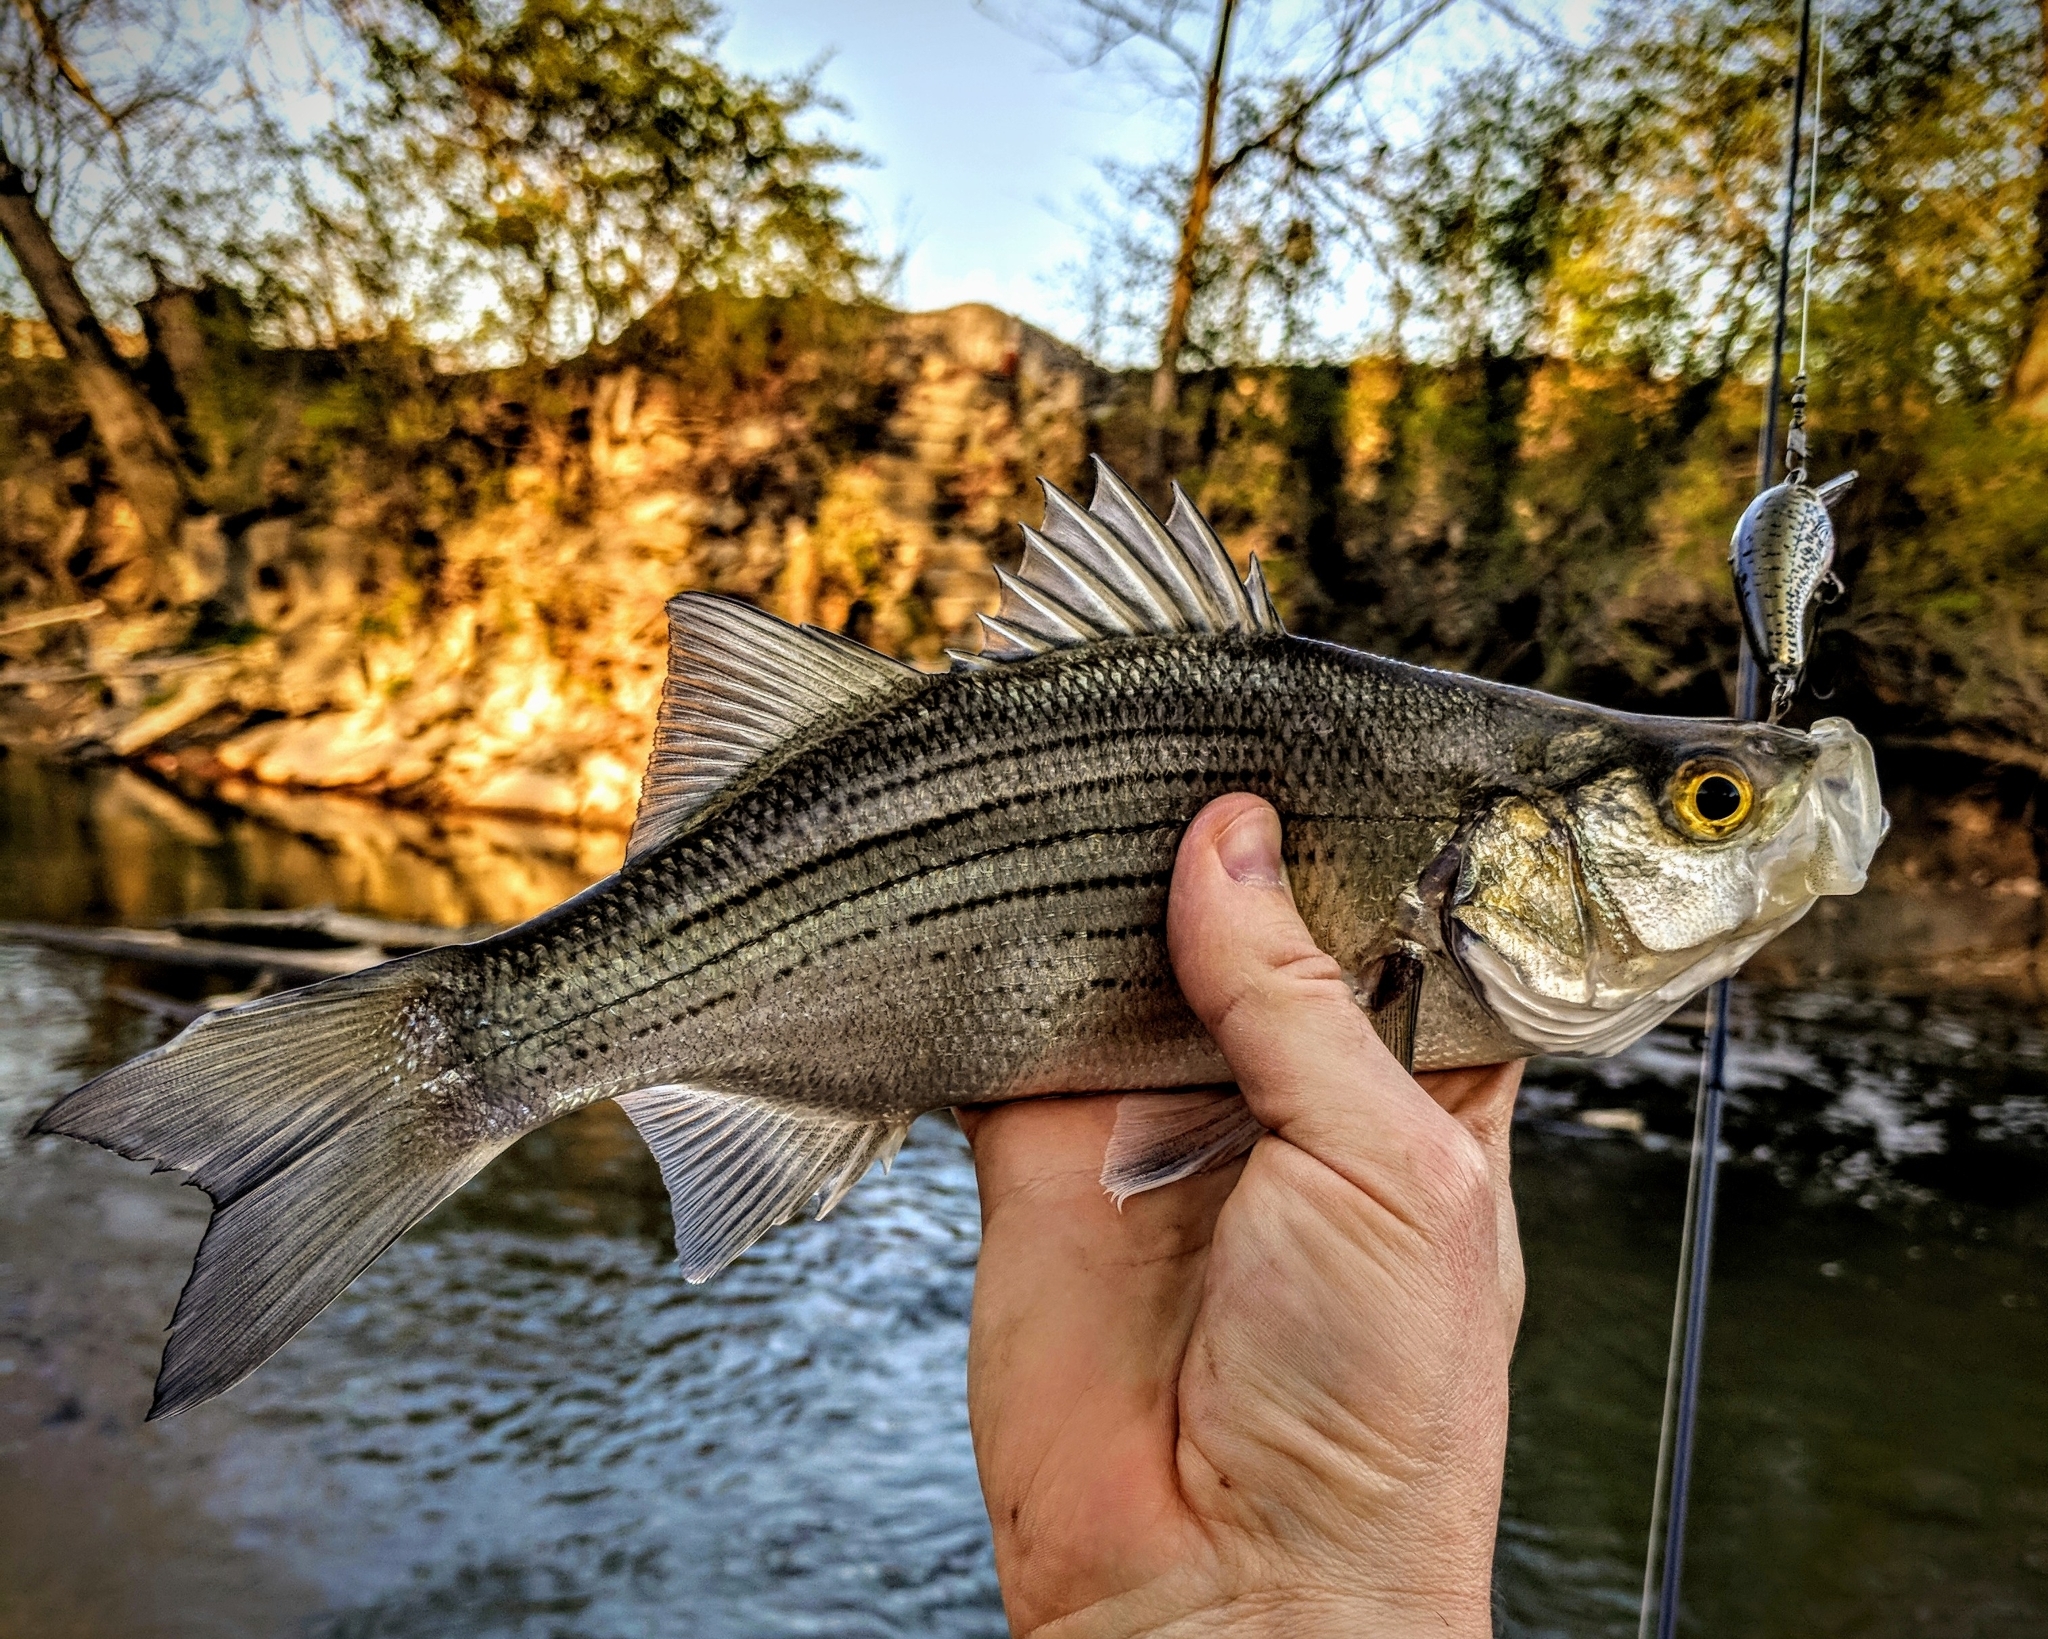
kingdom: Animalia
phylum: Chordata
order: Perciformes
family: Moronidae
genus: Morone
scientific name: Morone chrysops
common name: White bass
